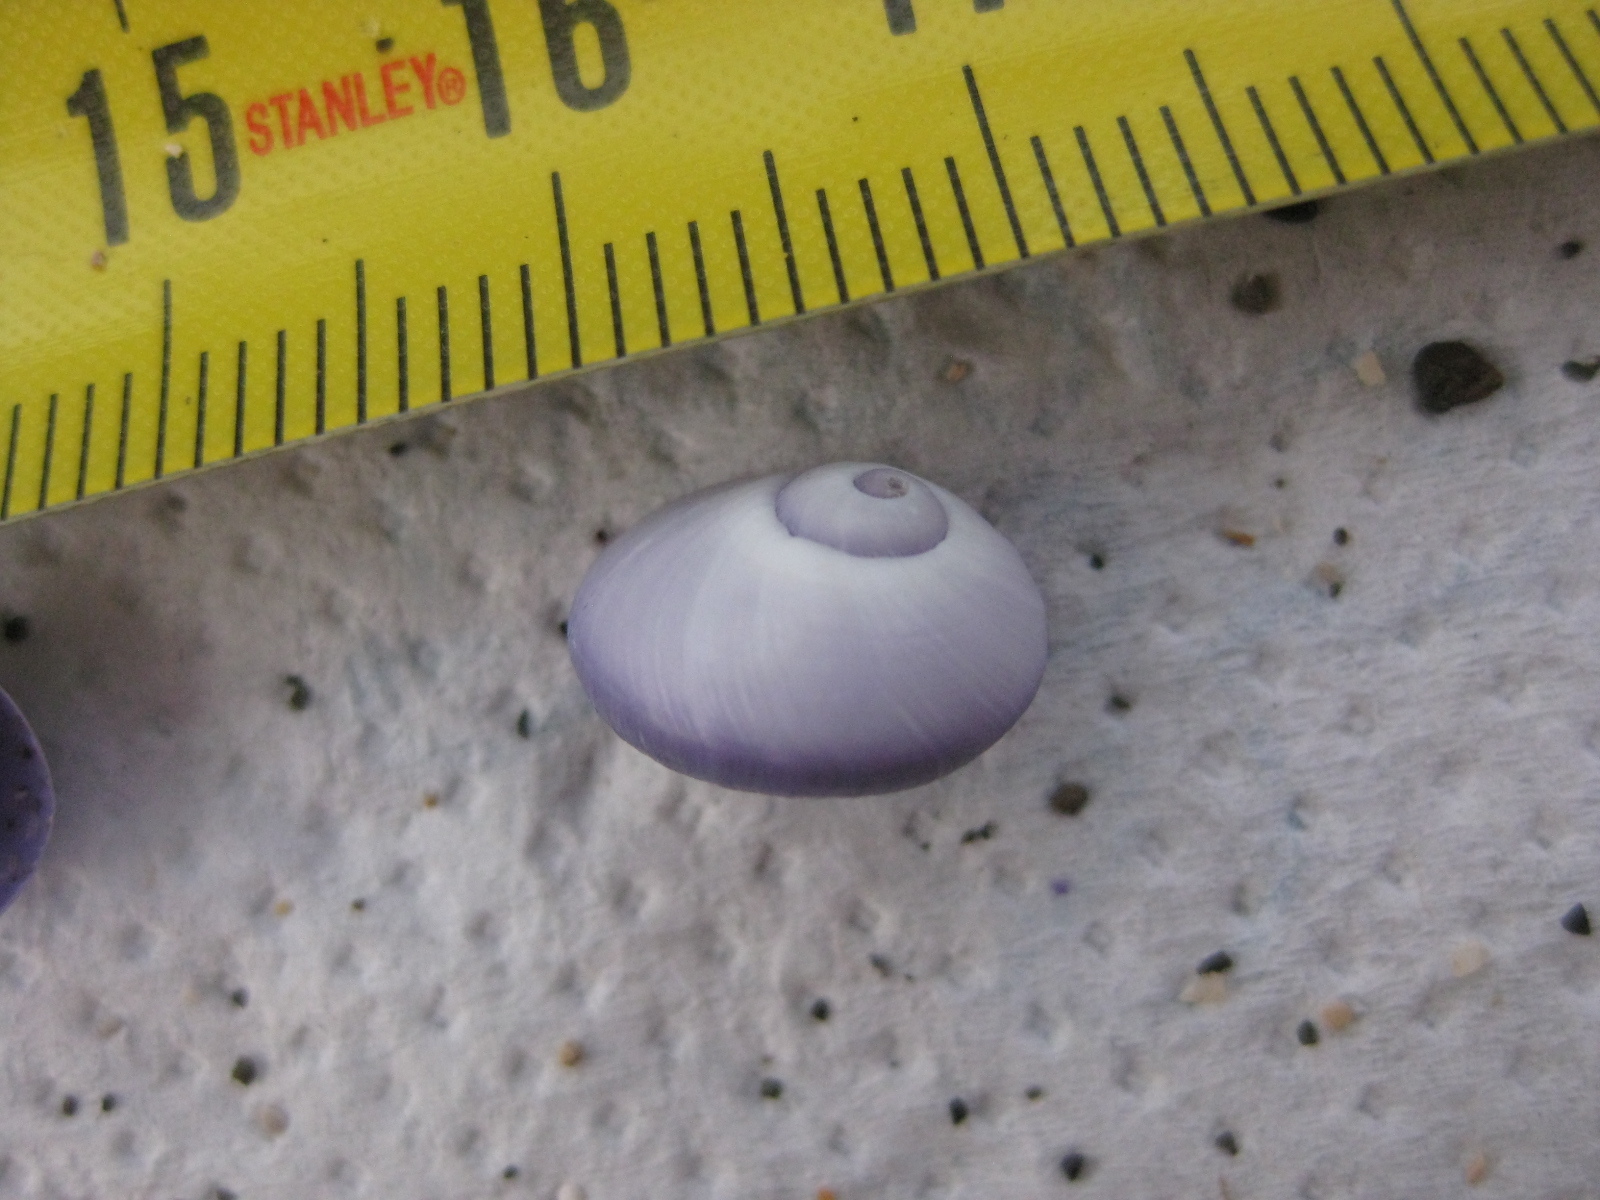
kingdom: Animalia
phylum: Mollusca
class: Gastropoda
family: Epitoniidae
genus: Janthina
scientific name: Janthina janthina
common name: Common janthina
